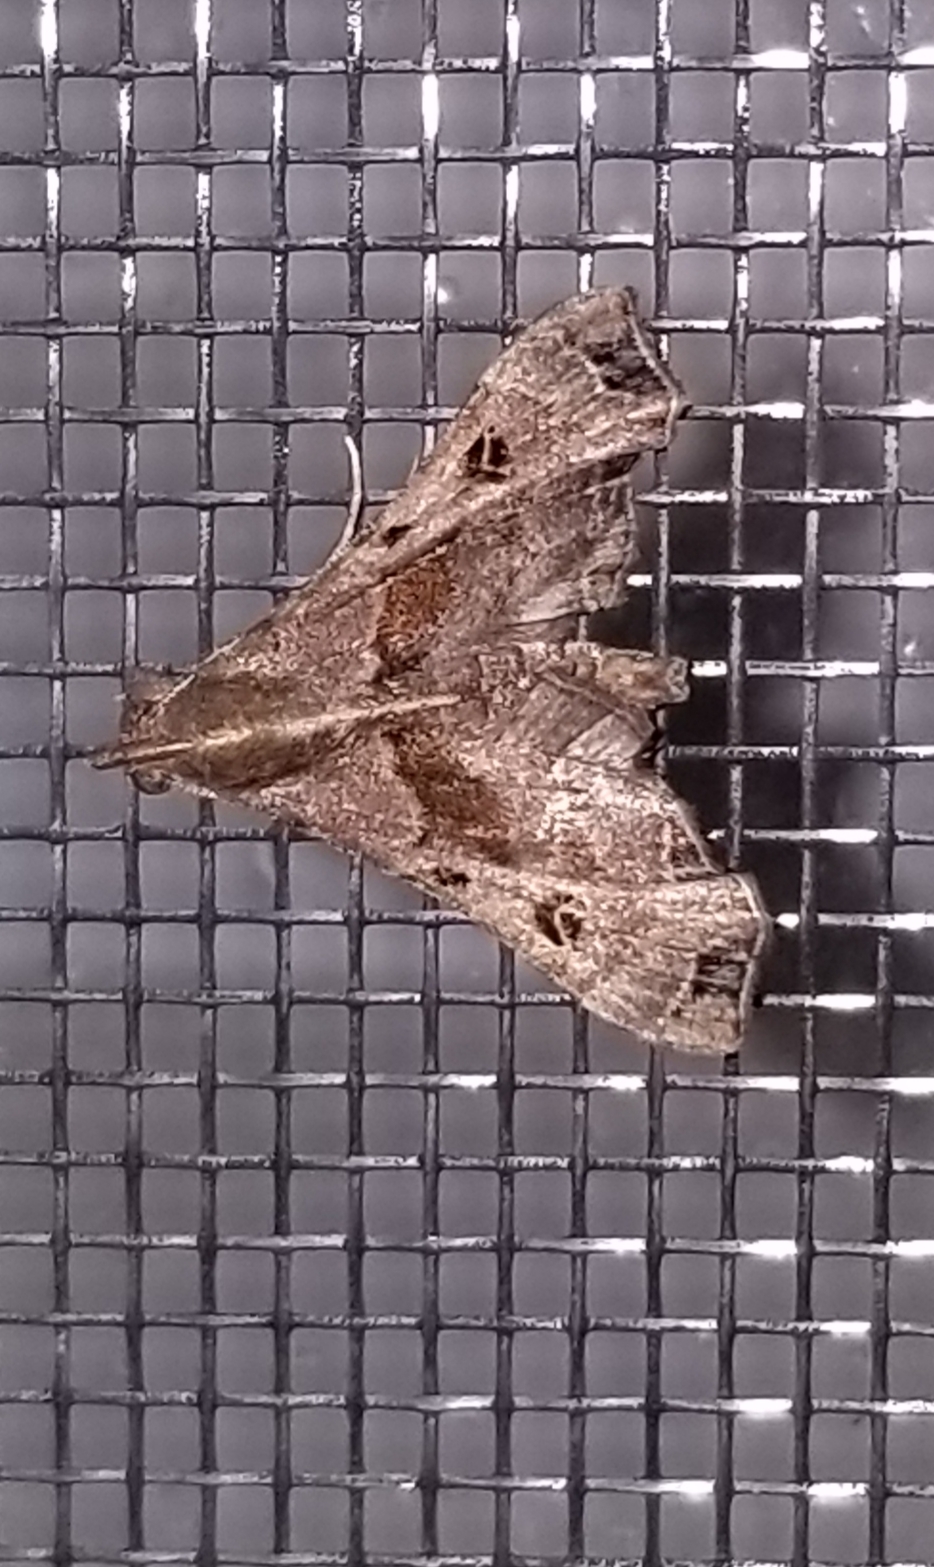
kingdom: Animalia
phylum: Arthropoda
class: Insecta
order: Lepidoptera
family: Erebidae
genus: Palthis
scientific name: Palthis asopialis
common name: Faint-spotted palthis moth
